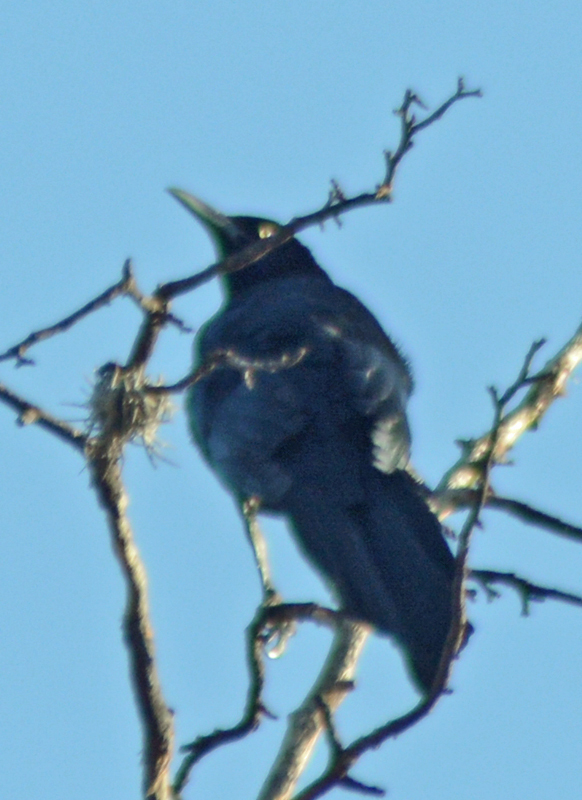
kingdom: Animalia
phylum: Chordata
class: Aves
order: Passeriformes
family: Icteridae
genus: Quiscalus
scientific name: Quiscalus mexicanus
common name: Great-tailed grackle
